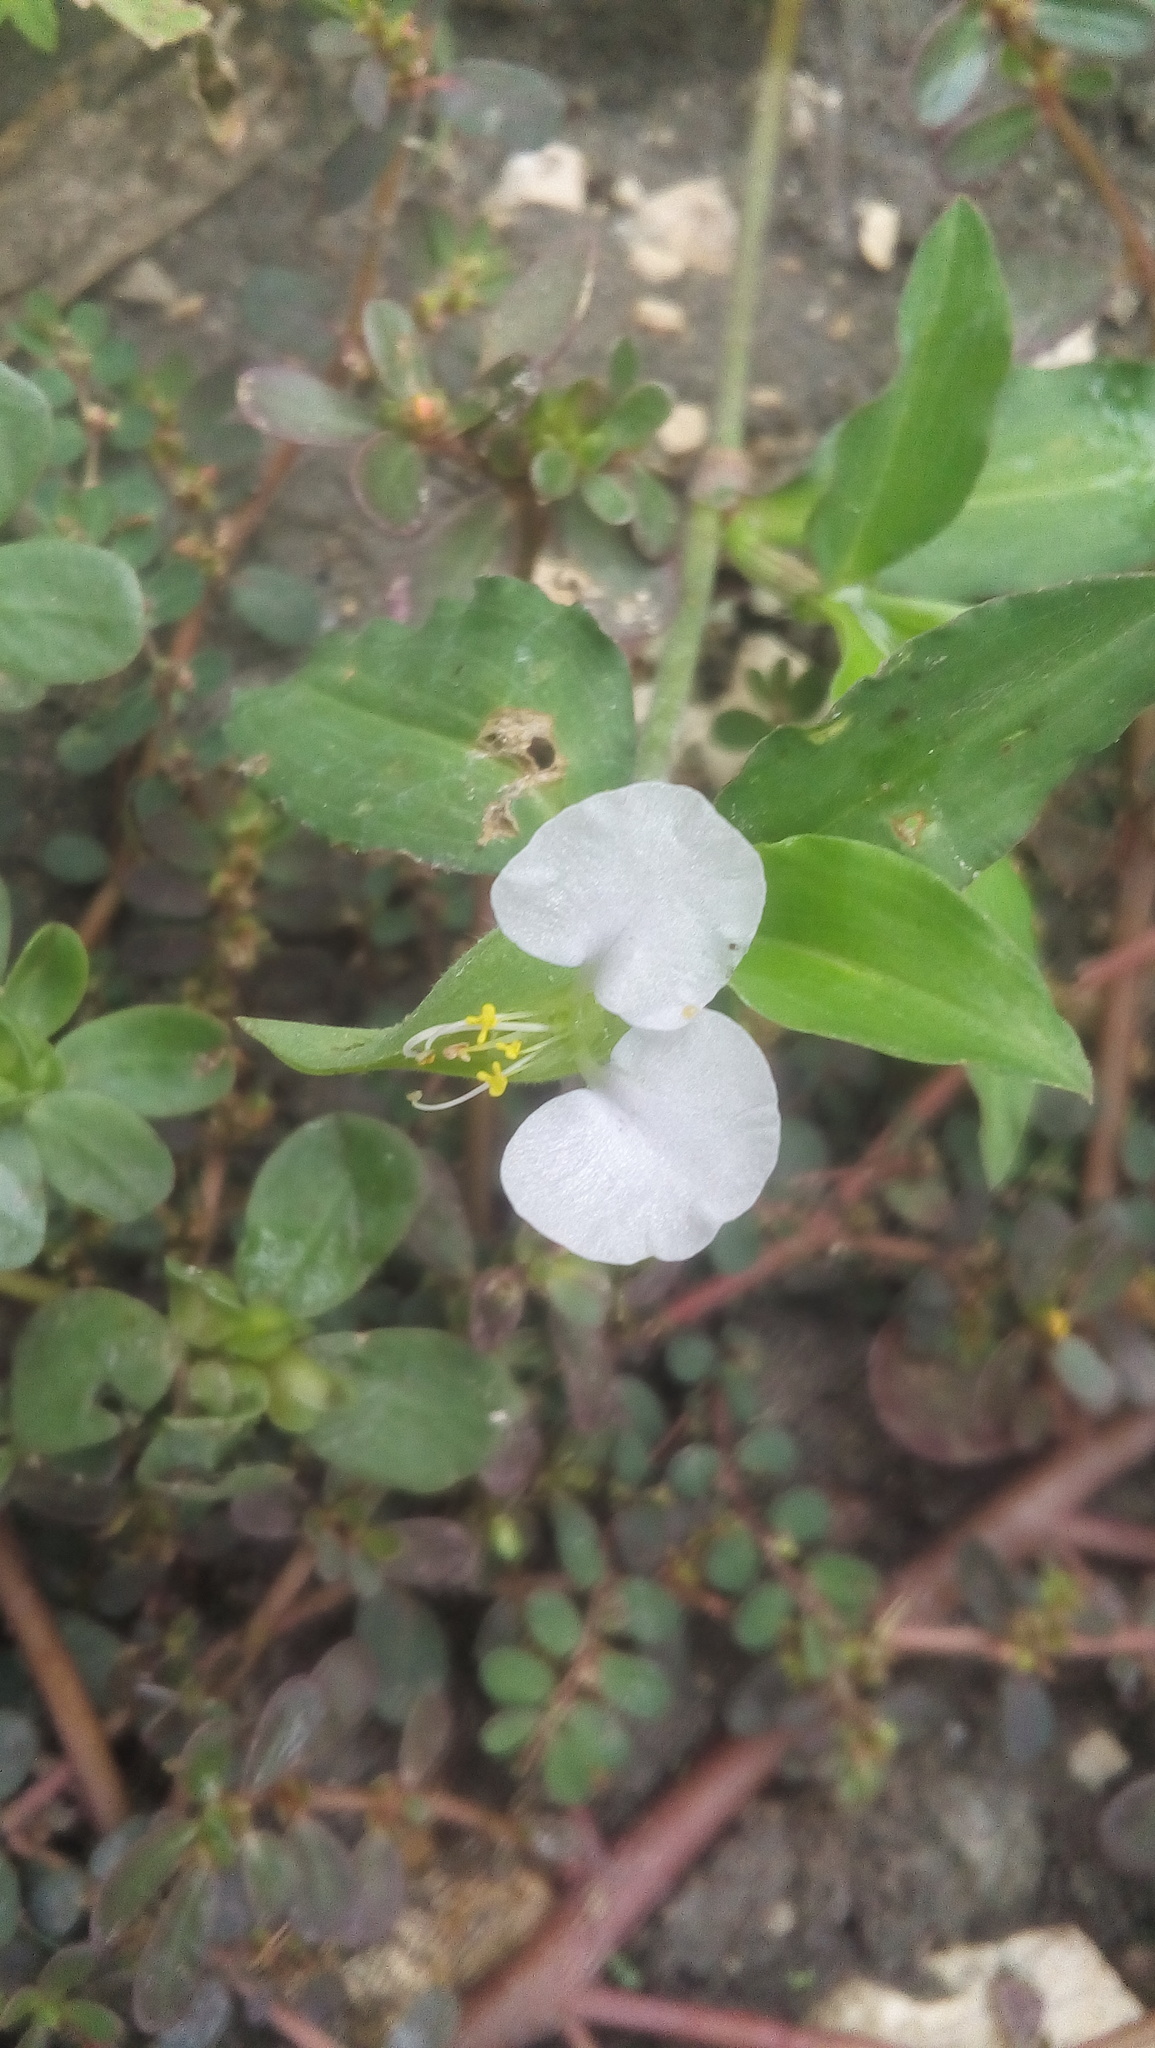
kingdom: Plantae
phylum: Tracheophyta
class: Liliopsida
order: Commelinales
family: Commelinaceae
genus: Commelina
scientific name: Commelina erecta
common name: Blousel blommetjie
